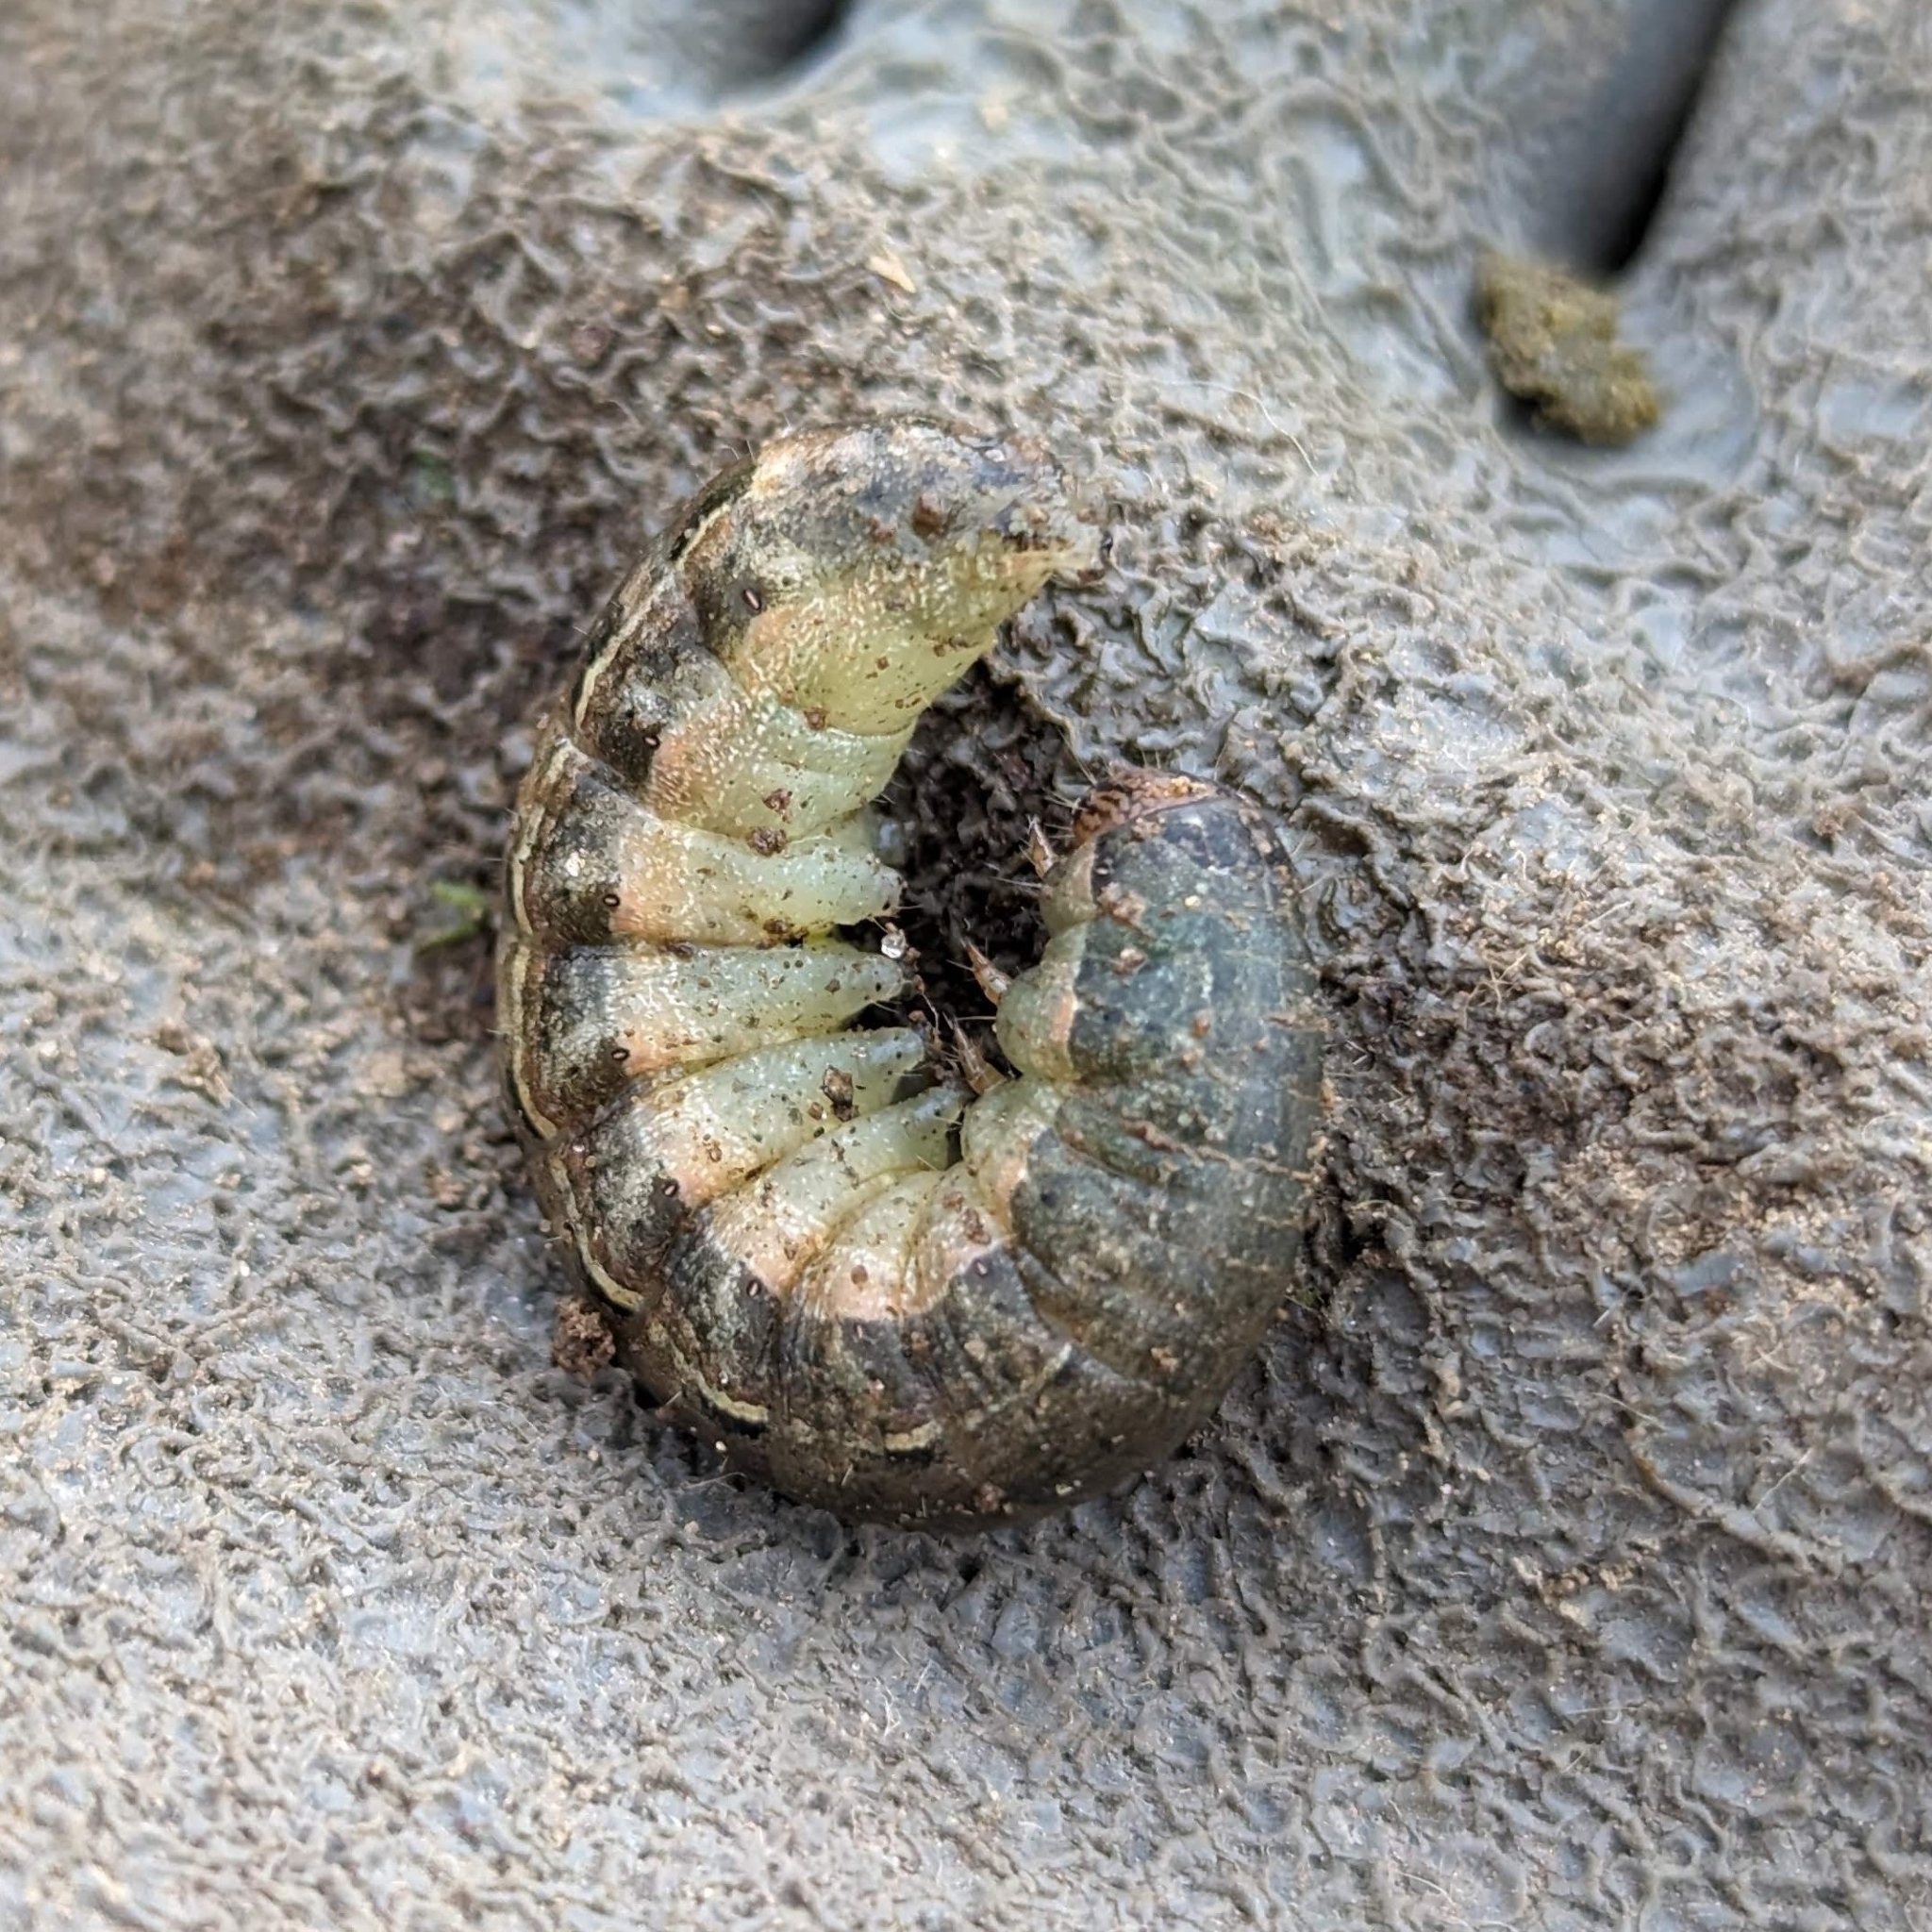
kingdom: Animalia
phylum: Arthropoda
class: Insecta
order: Lepidoptera
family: Noctuidae
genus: Noctua
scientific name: Noctua pronuba
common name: Large yellow underwing
